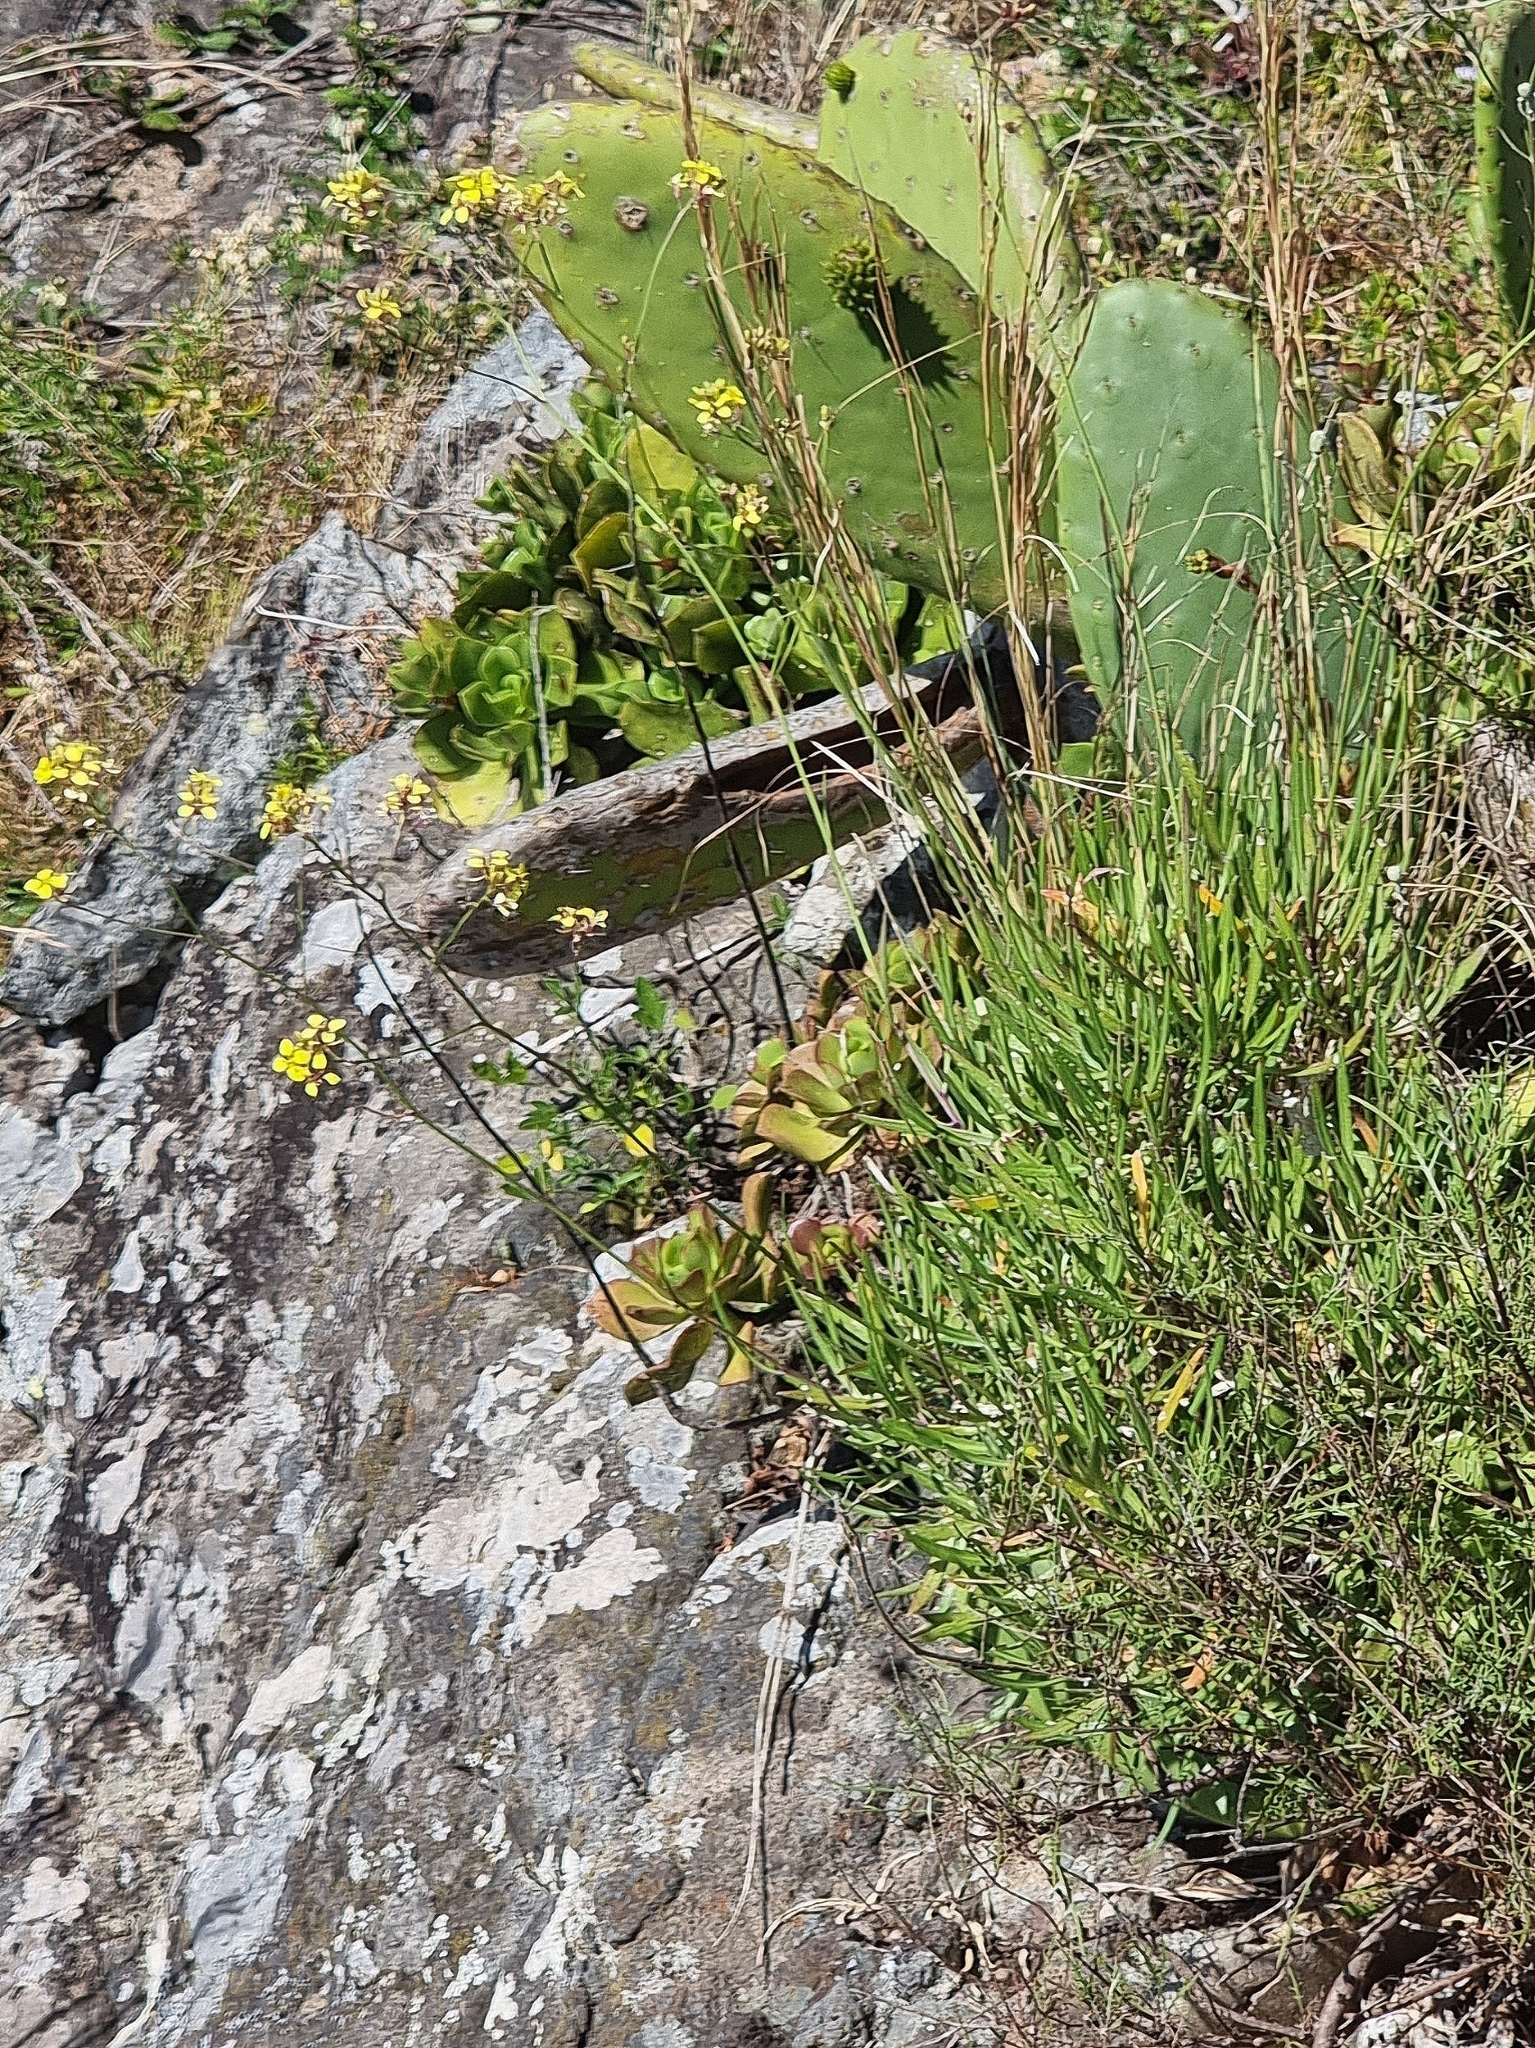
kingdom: Plantae
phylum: Tracheophyta
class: Magnoliopsida
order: Brassicales
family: Brassicaceae
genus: Sinapidendron
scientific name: Sinapidendron angustifolium
